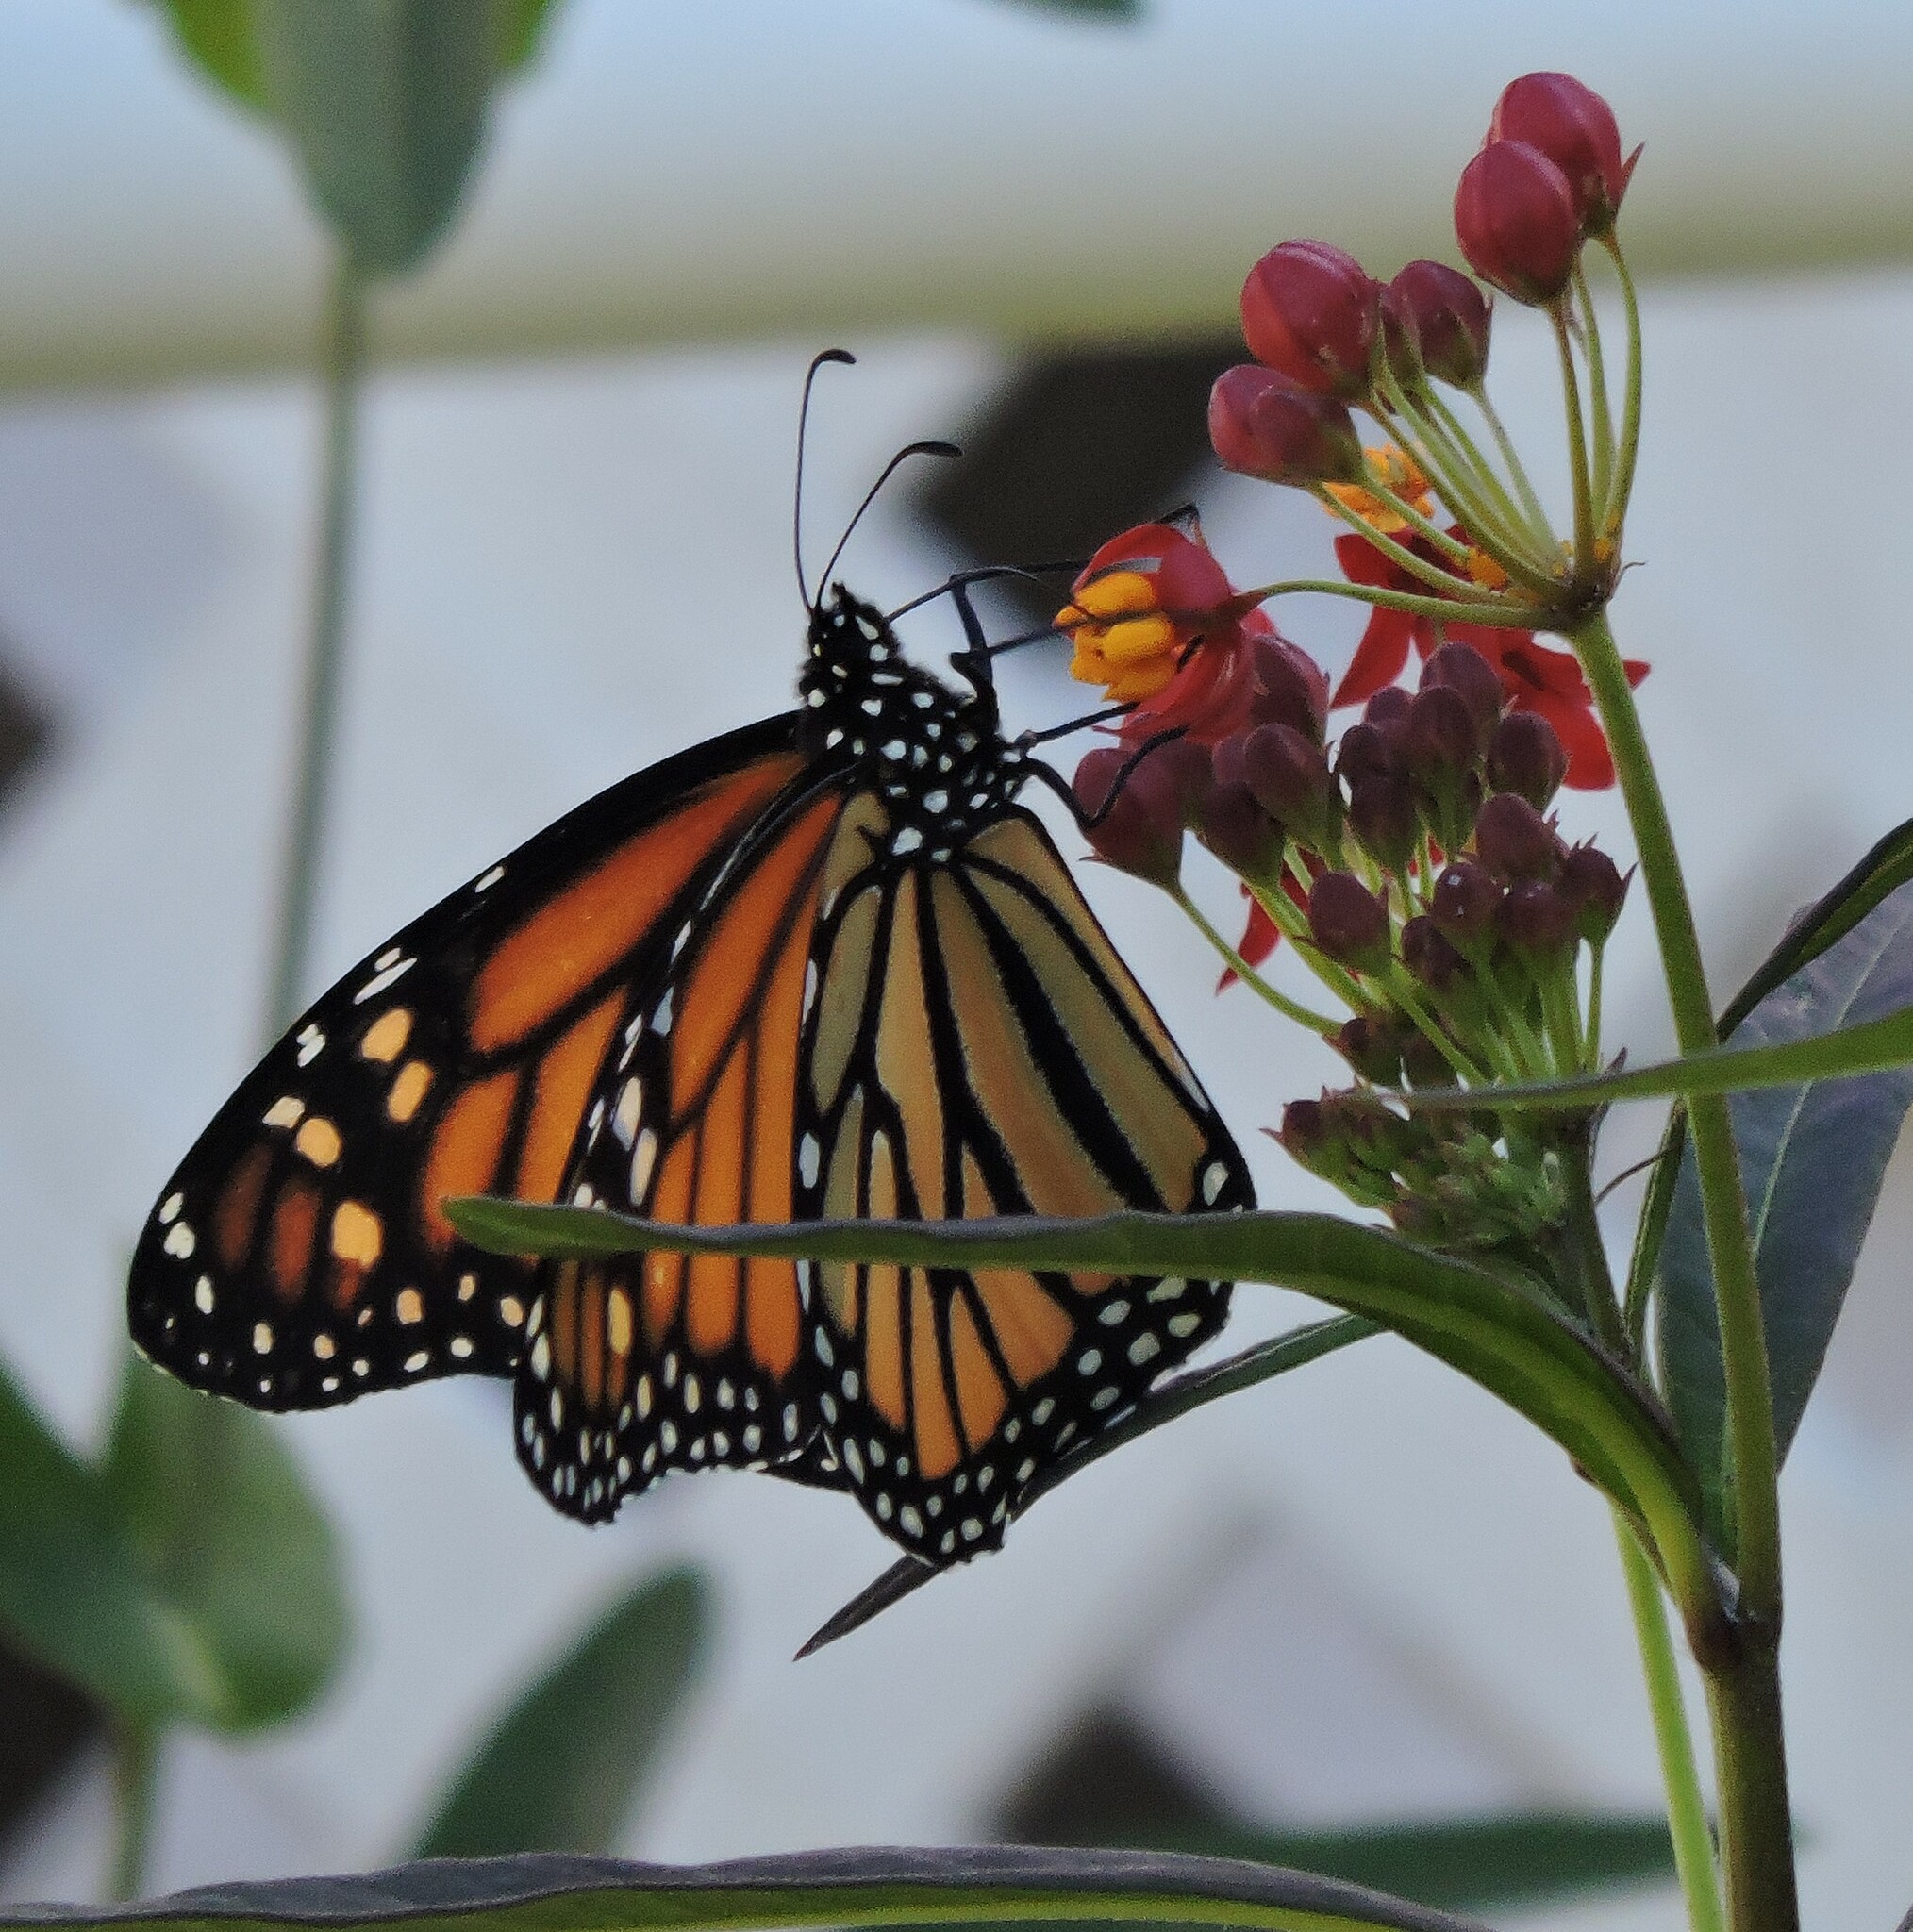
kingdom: Animalia
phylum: Arthropoda
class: Insecta
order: Lepidoptera
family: Nymphalidae
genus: Danaus
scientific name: Danaus plexippus
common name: Monarch
